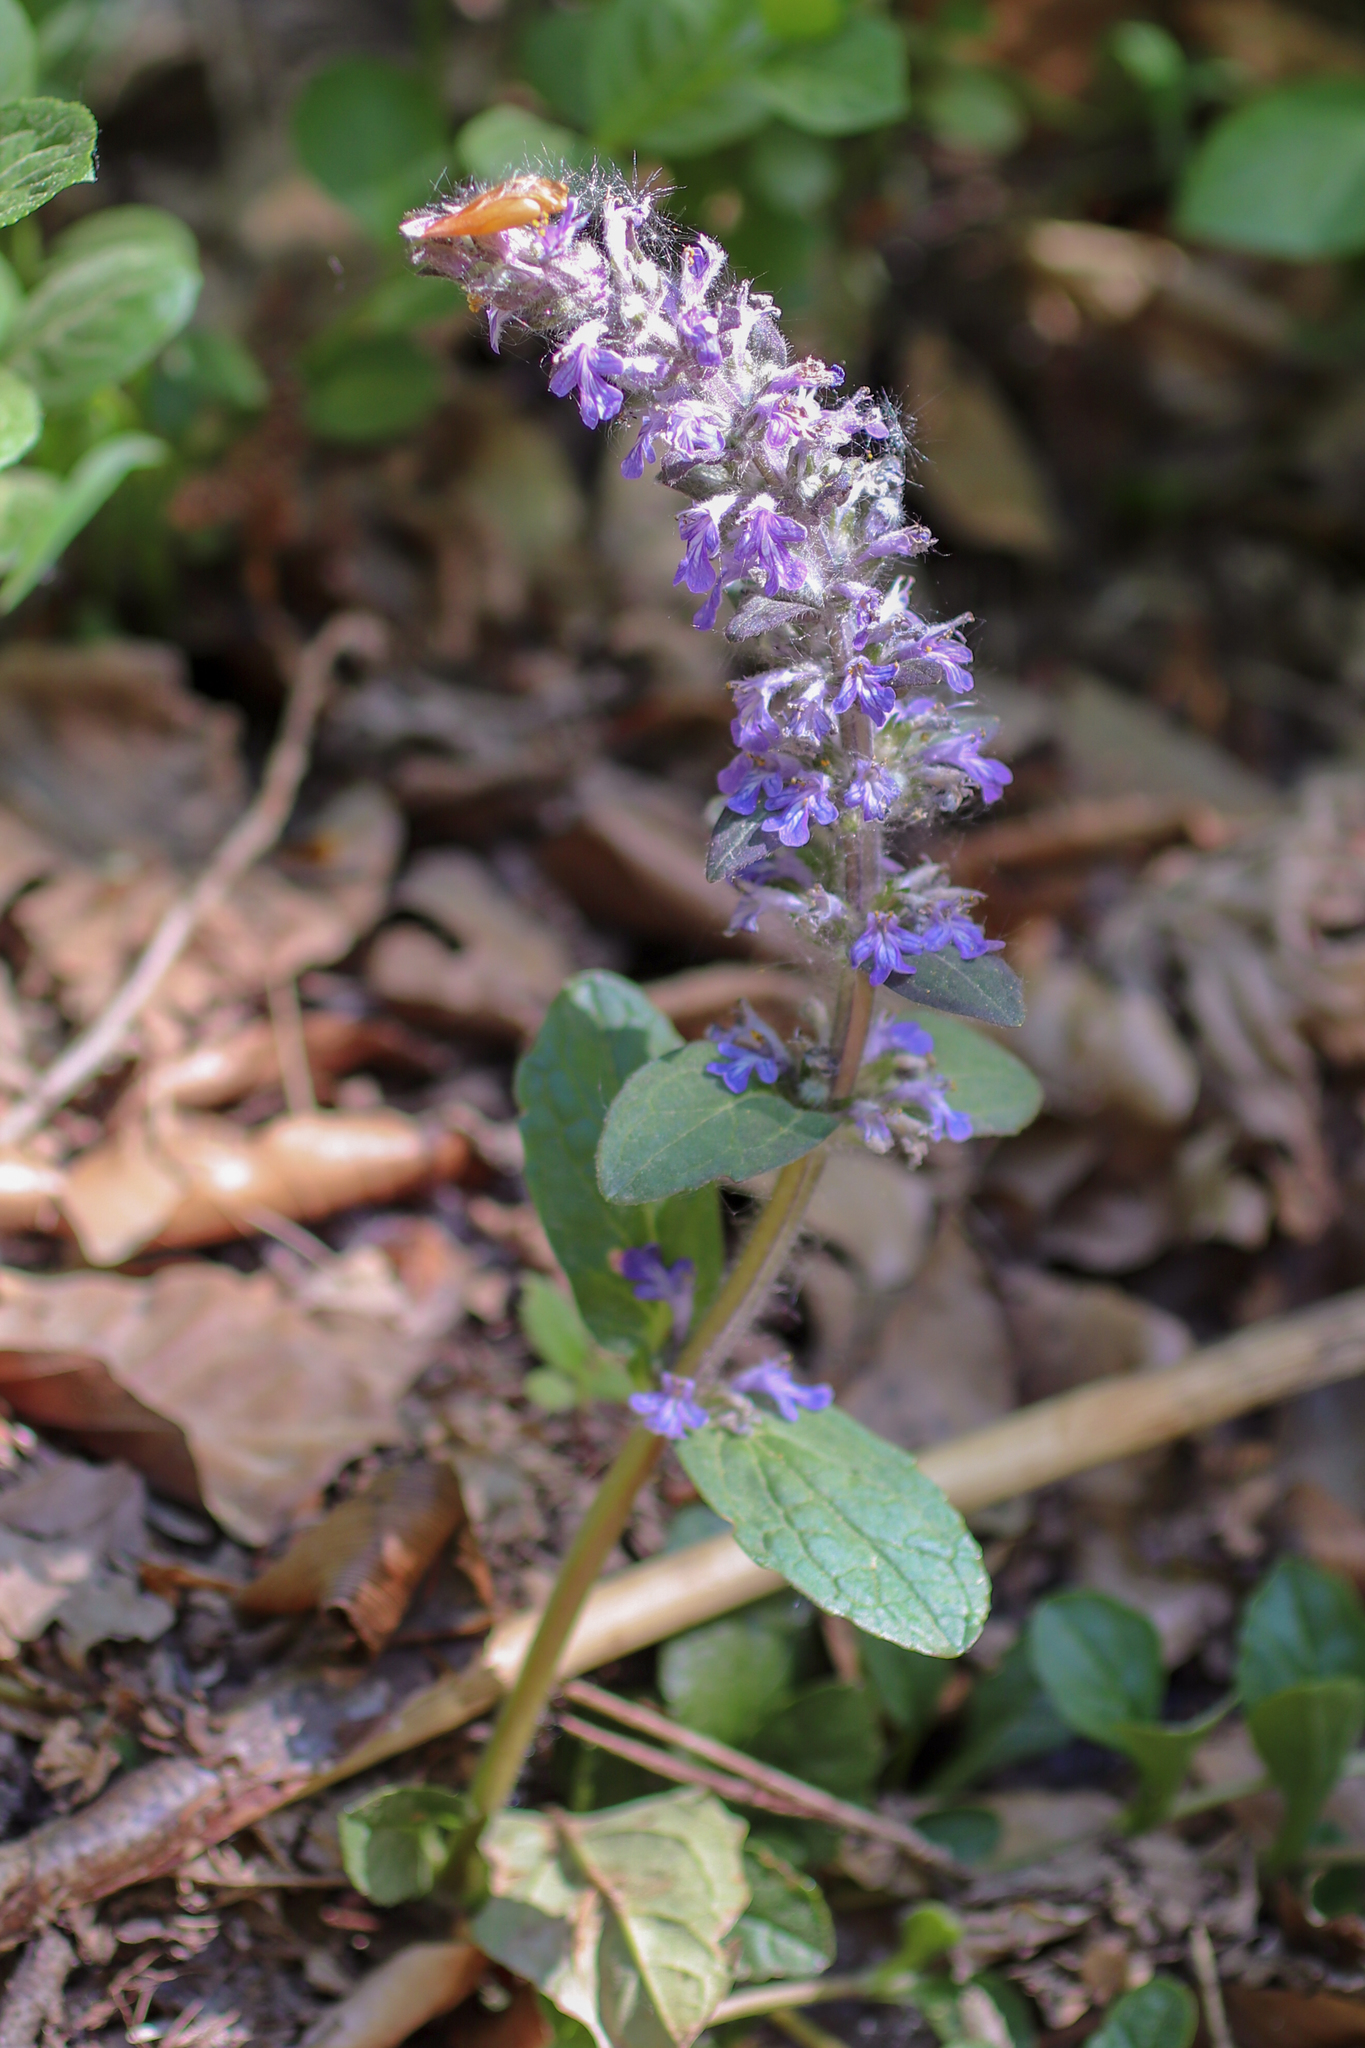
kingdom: Plantae
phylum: Tracheophyta
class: Magnoliopsida
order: Lamiales
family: Lamiaceae
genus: Ajuga
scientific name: Ajuga reptans
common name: Bugle
